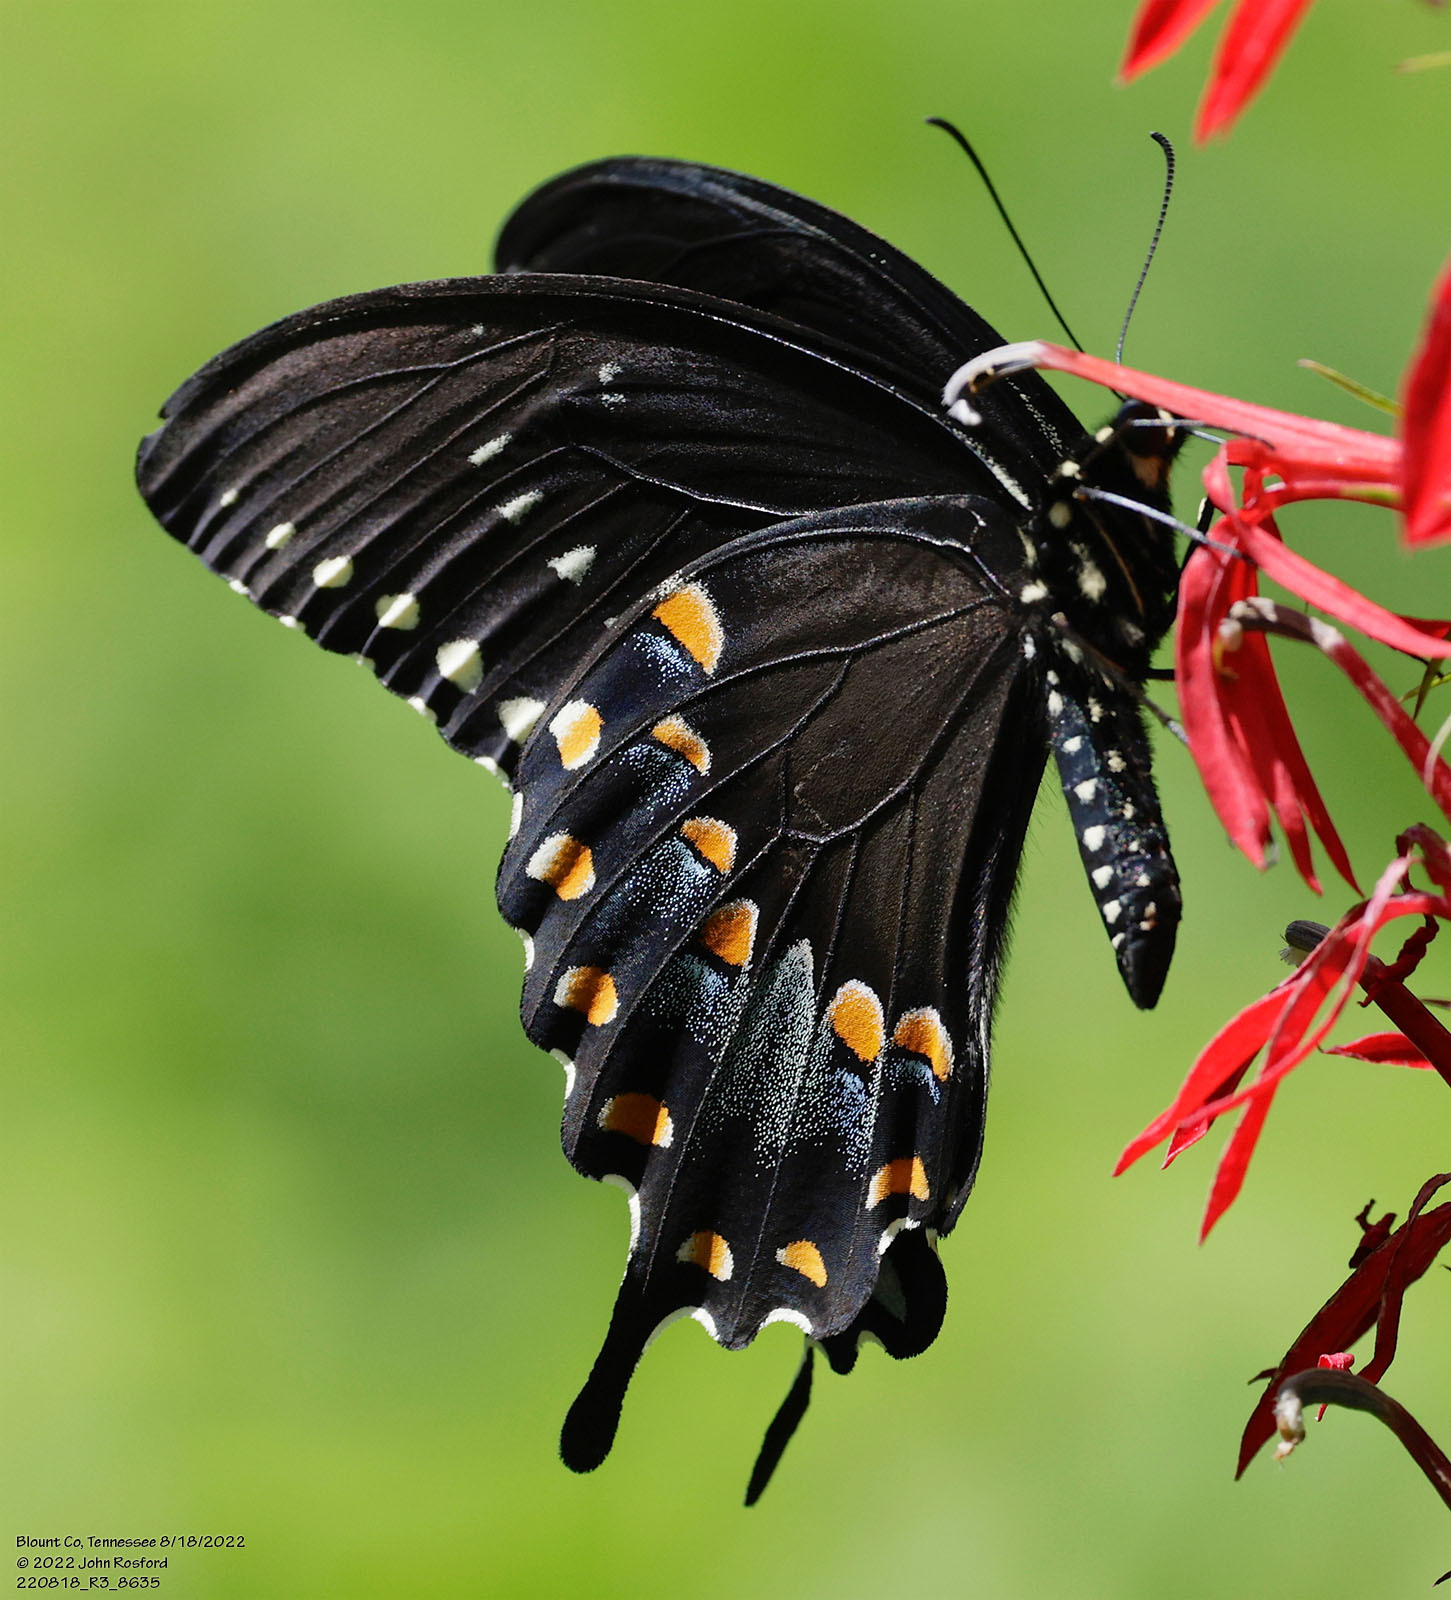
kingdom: Animalia
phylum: Arthropoda
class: Insecta
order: Lepidoptera
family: Papilionidae
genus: Papilio
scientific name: Papilio troilus
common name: Spicebush swallowtail
